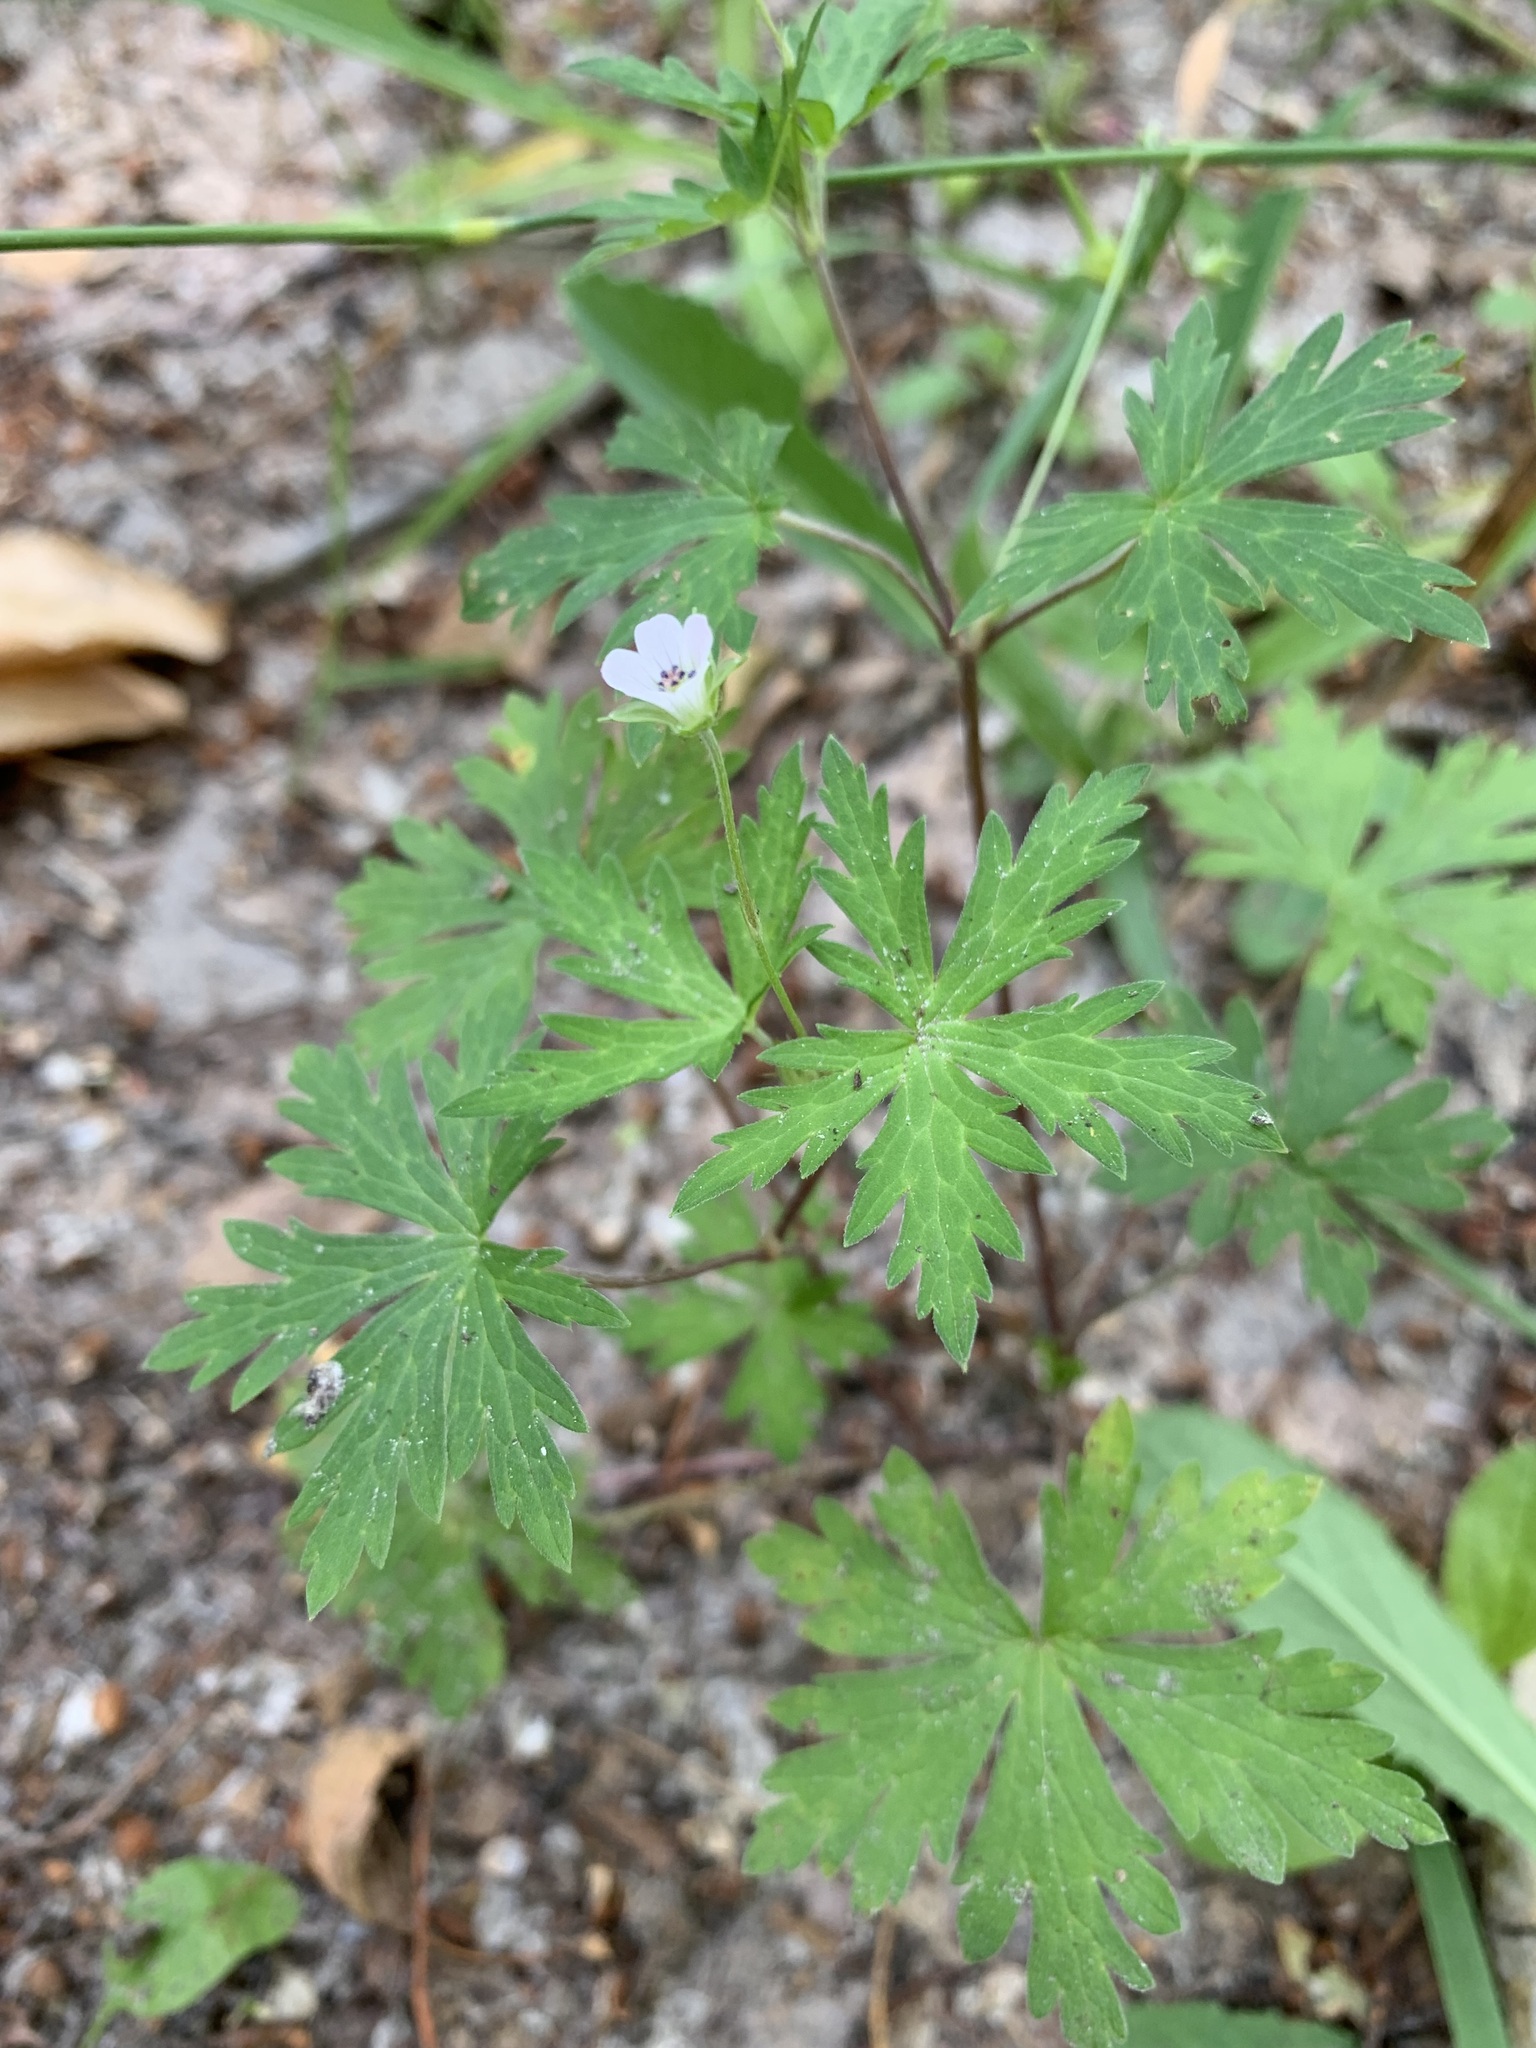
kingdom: Plantae
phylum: Tracheophyta
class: Magnoliopsida
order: Geraniales
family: Geraniaceae
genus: Geranium
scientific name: Geranium sibiricum
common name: Siberian crane's-bill
